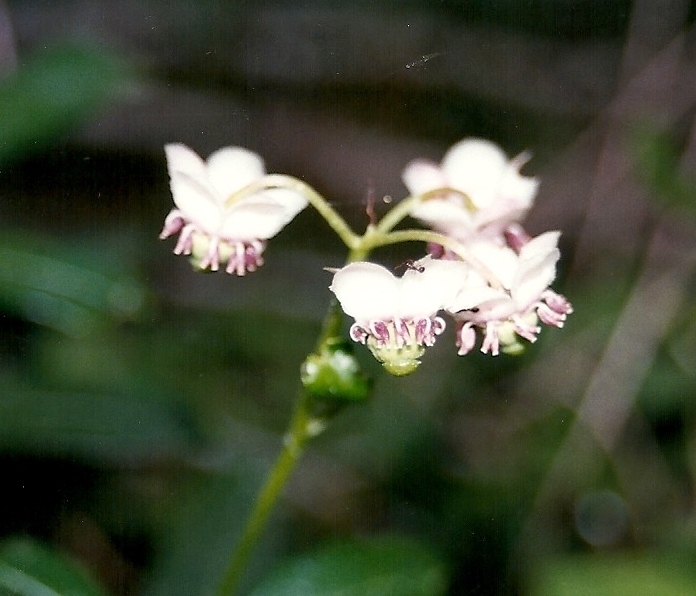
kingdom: Plantae
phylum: Tracheophyta
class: Magnoliopsida
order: Ericales
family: Ericaceae
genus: Chimaphila
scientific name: Chimaphila umbellata
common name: Pipsissewa
